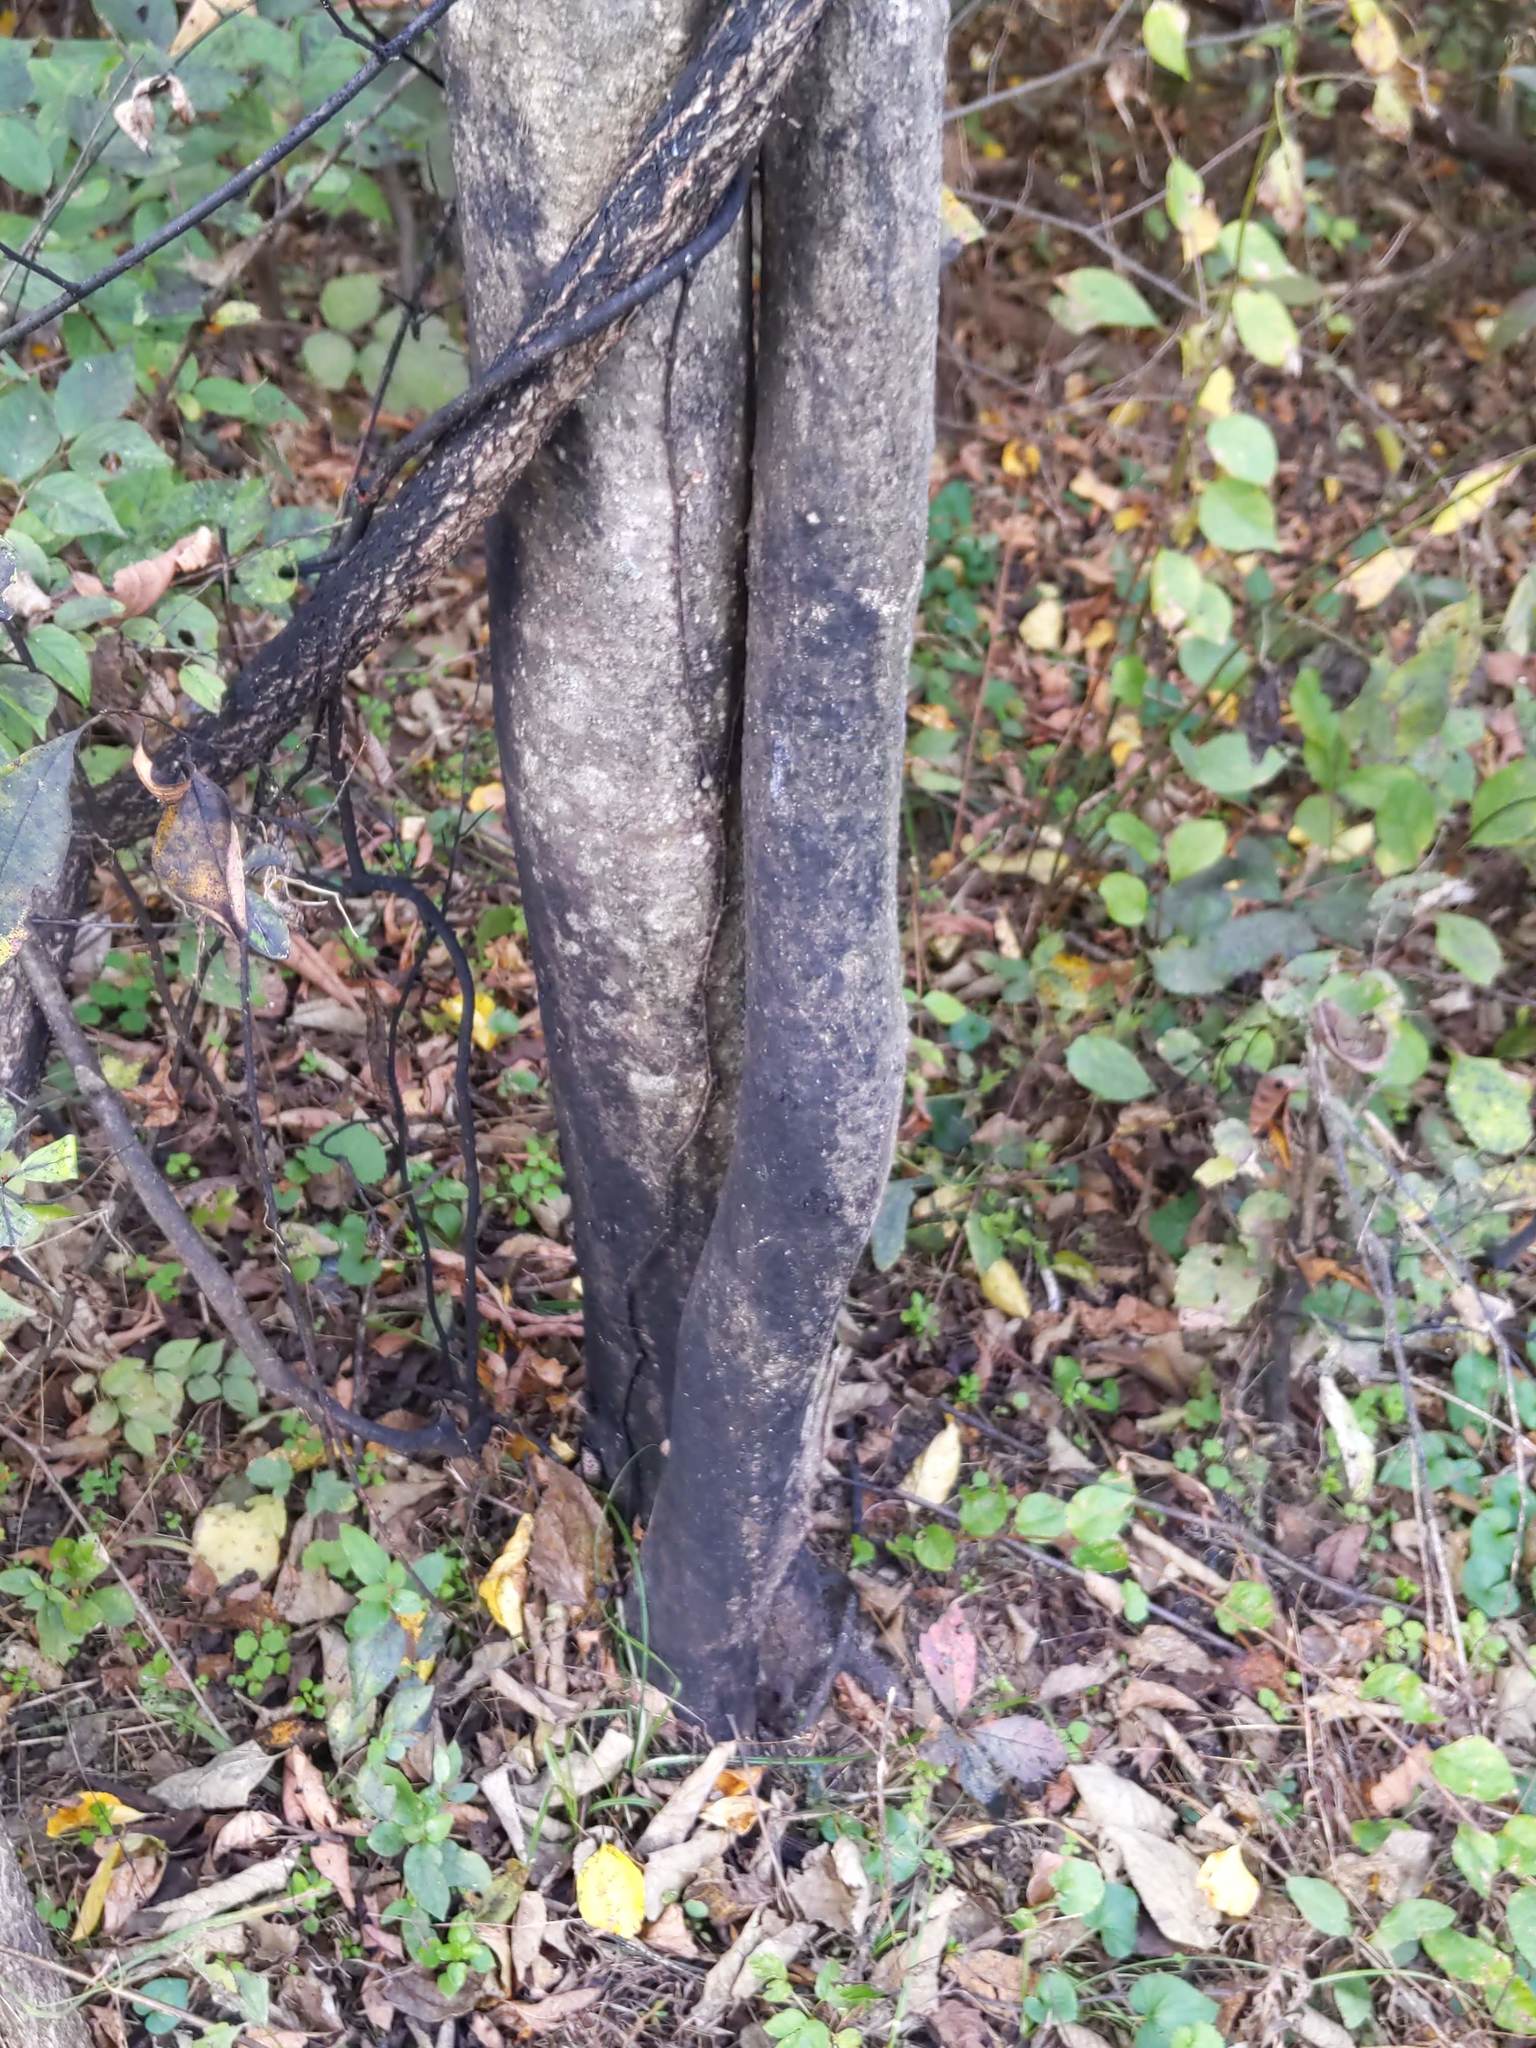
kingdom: Animalia
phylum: Arthropoda
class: Insecta
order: Hemiptera
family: Fulgoridae
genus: Lycorma
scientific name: Lycorma delicatula
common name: Spotted lanternfly
